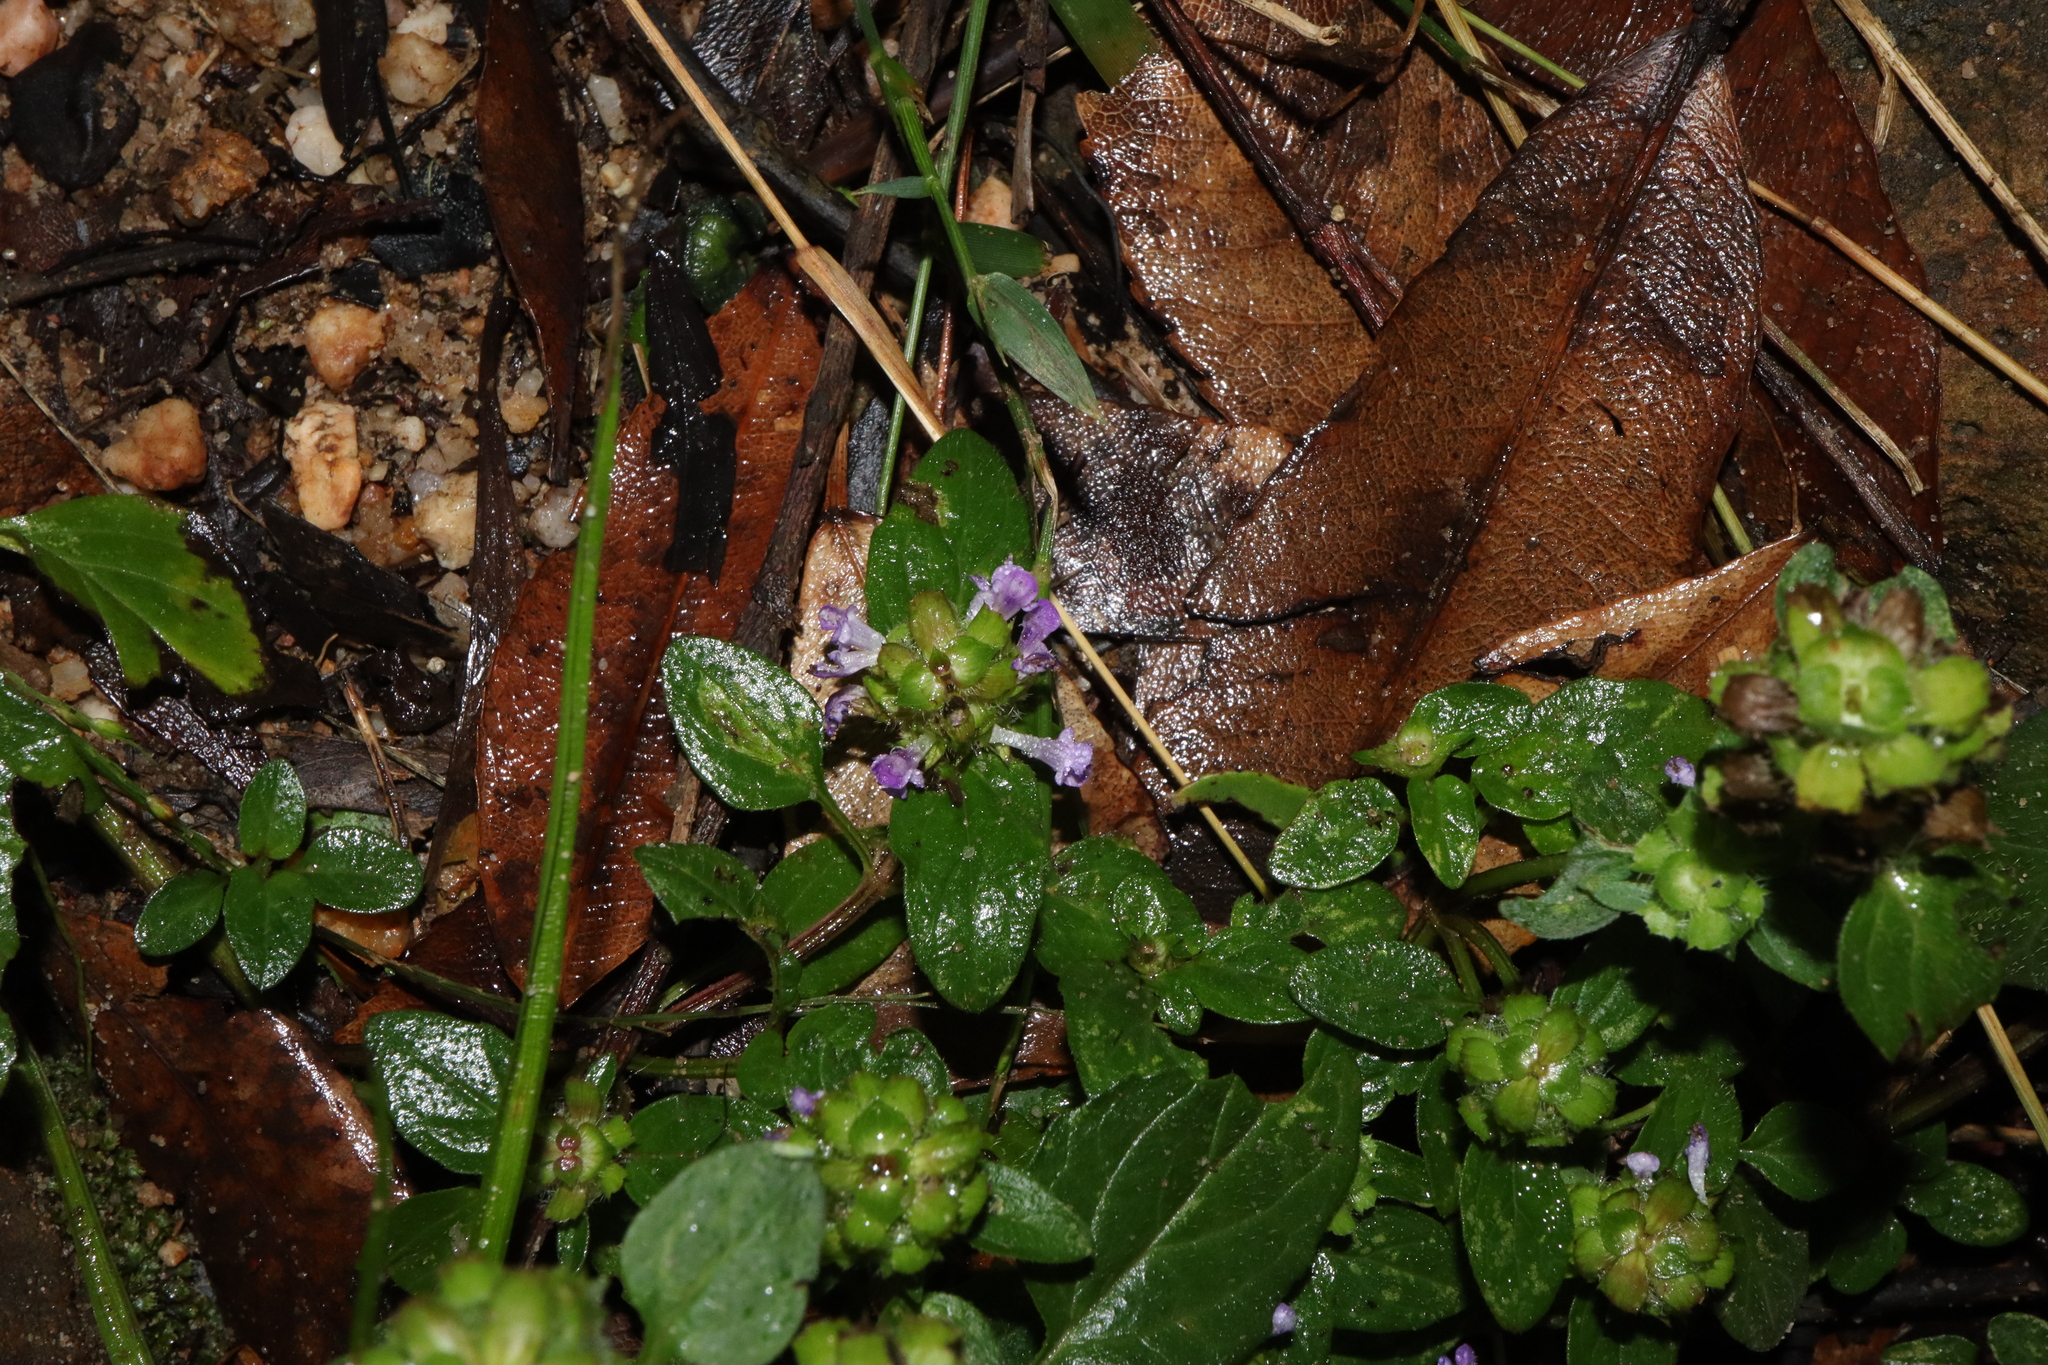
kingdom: Plantae
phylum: Tracheophyta
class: Magnoliopsida
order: Lamiales
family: Lamiaceae
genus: Prunella
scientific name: Prunella vulgaris
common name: Heal-all
